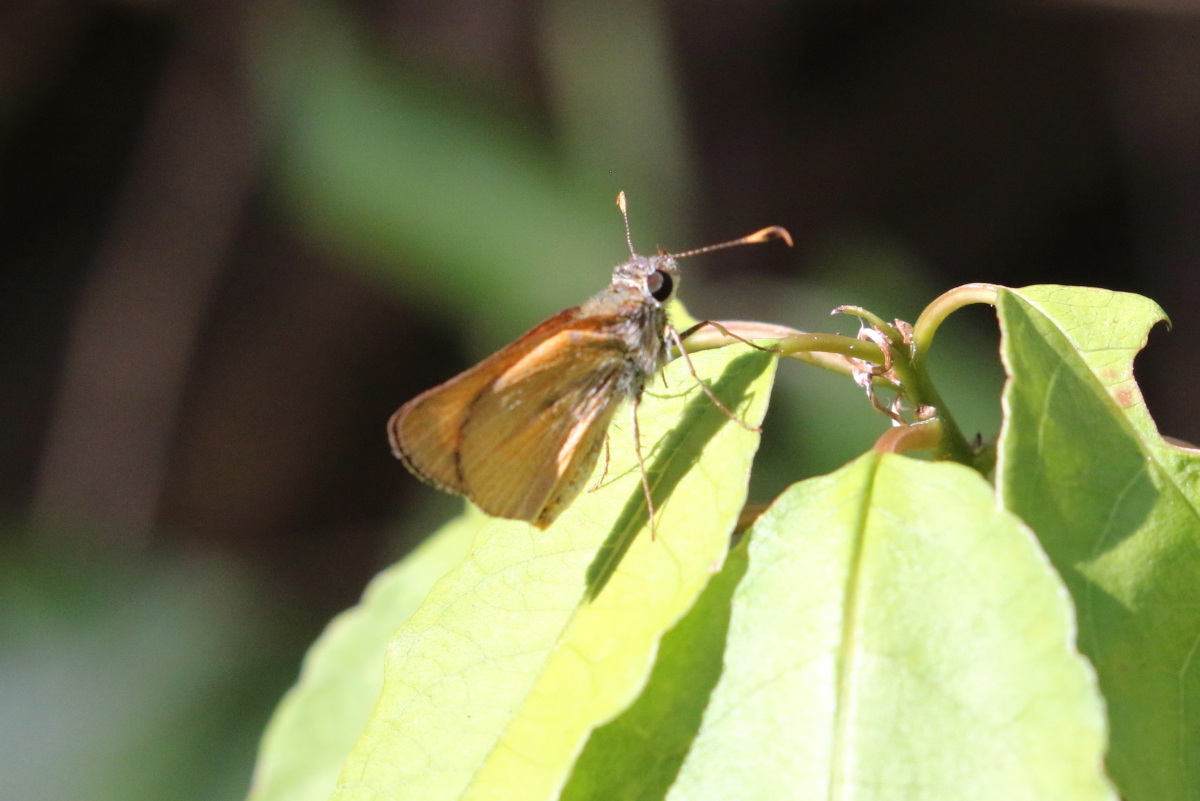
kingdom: Animalia
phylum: Arthropoda
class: Insecta
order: Lepidoptera
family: Hesperiidae
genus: Choranthus
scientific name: Choranthus vitellius
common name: Vitellius skipper
